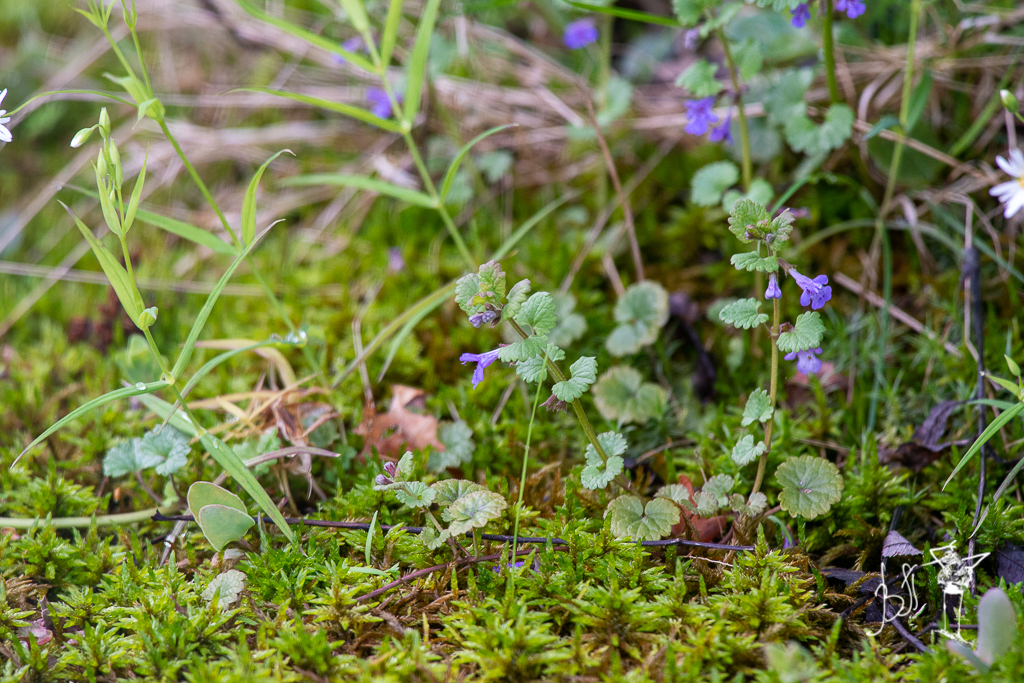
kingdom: Plantae
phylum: Tracheophyta
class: Magnoliopsida
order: Lamiales
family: Lamiaceae
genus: Glechoma
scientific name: Glechoma hederacea
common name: Ground ivy
